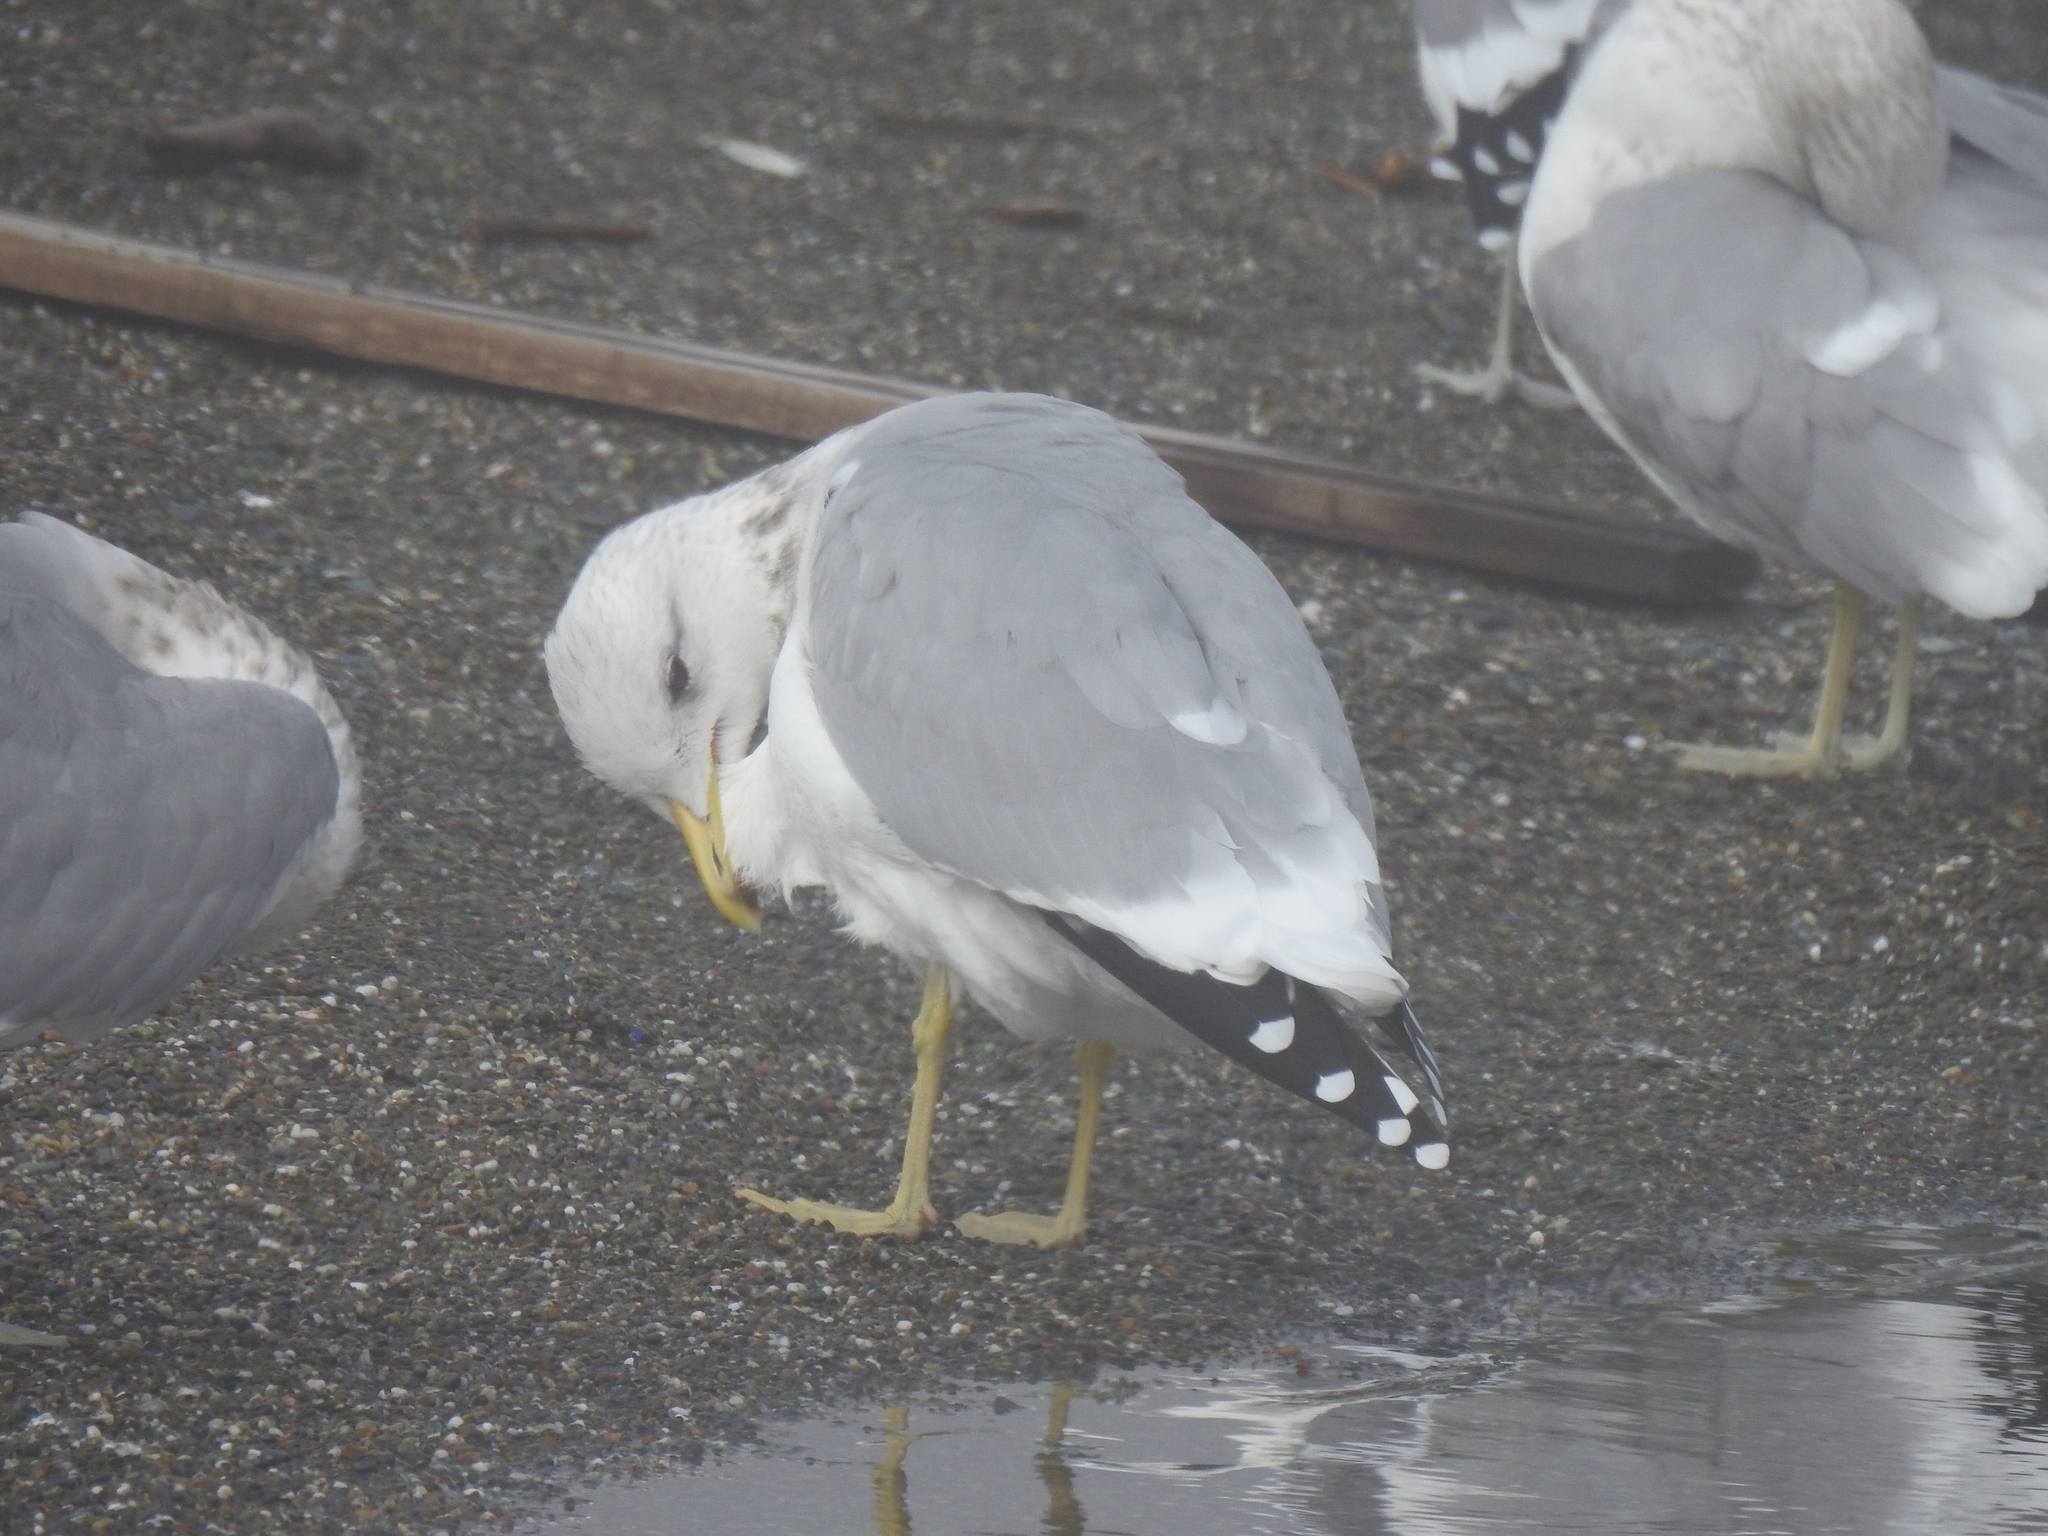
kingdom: Animalia
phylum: Chordata
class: Aves
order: Charadriiformes
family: Laridae
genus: Larus
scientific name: Larus californicus
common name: California gull
